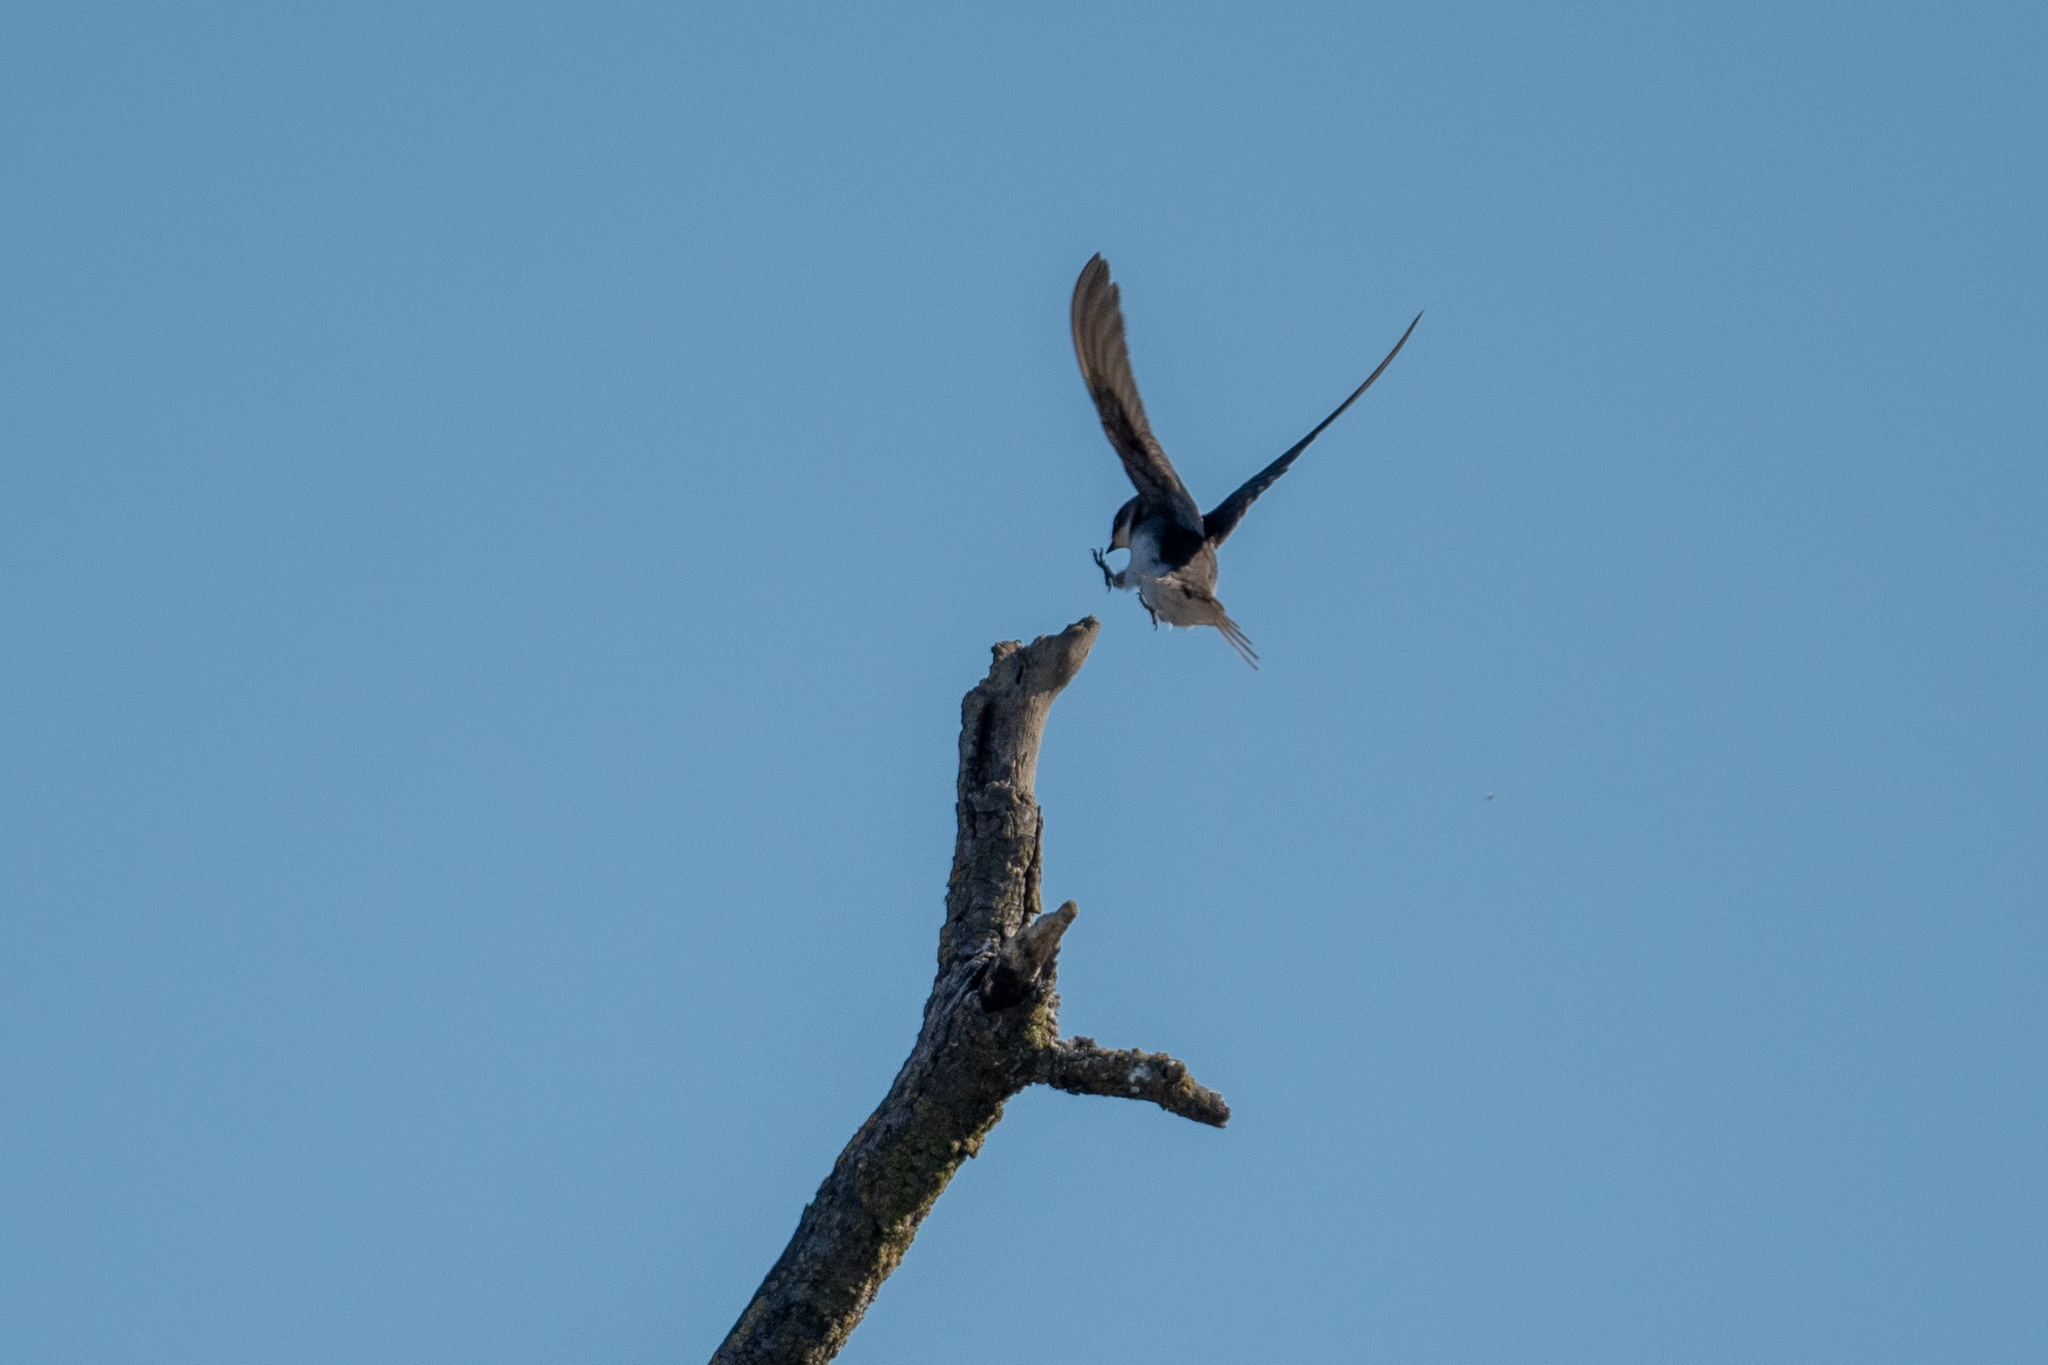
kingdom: Animalia
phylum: Chordata
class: Aves
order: Passeriformes
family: Hirundinidae
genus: Tachycineta
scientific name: Tachycineta bicolor
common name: Tree swallow
